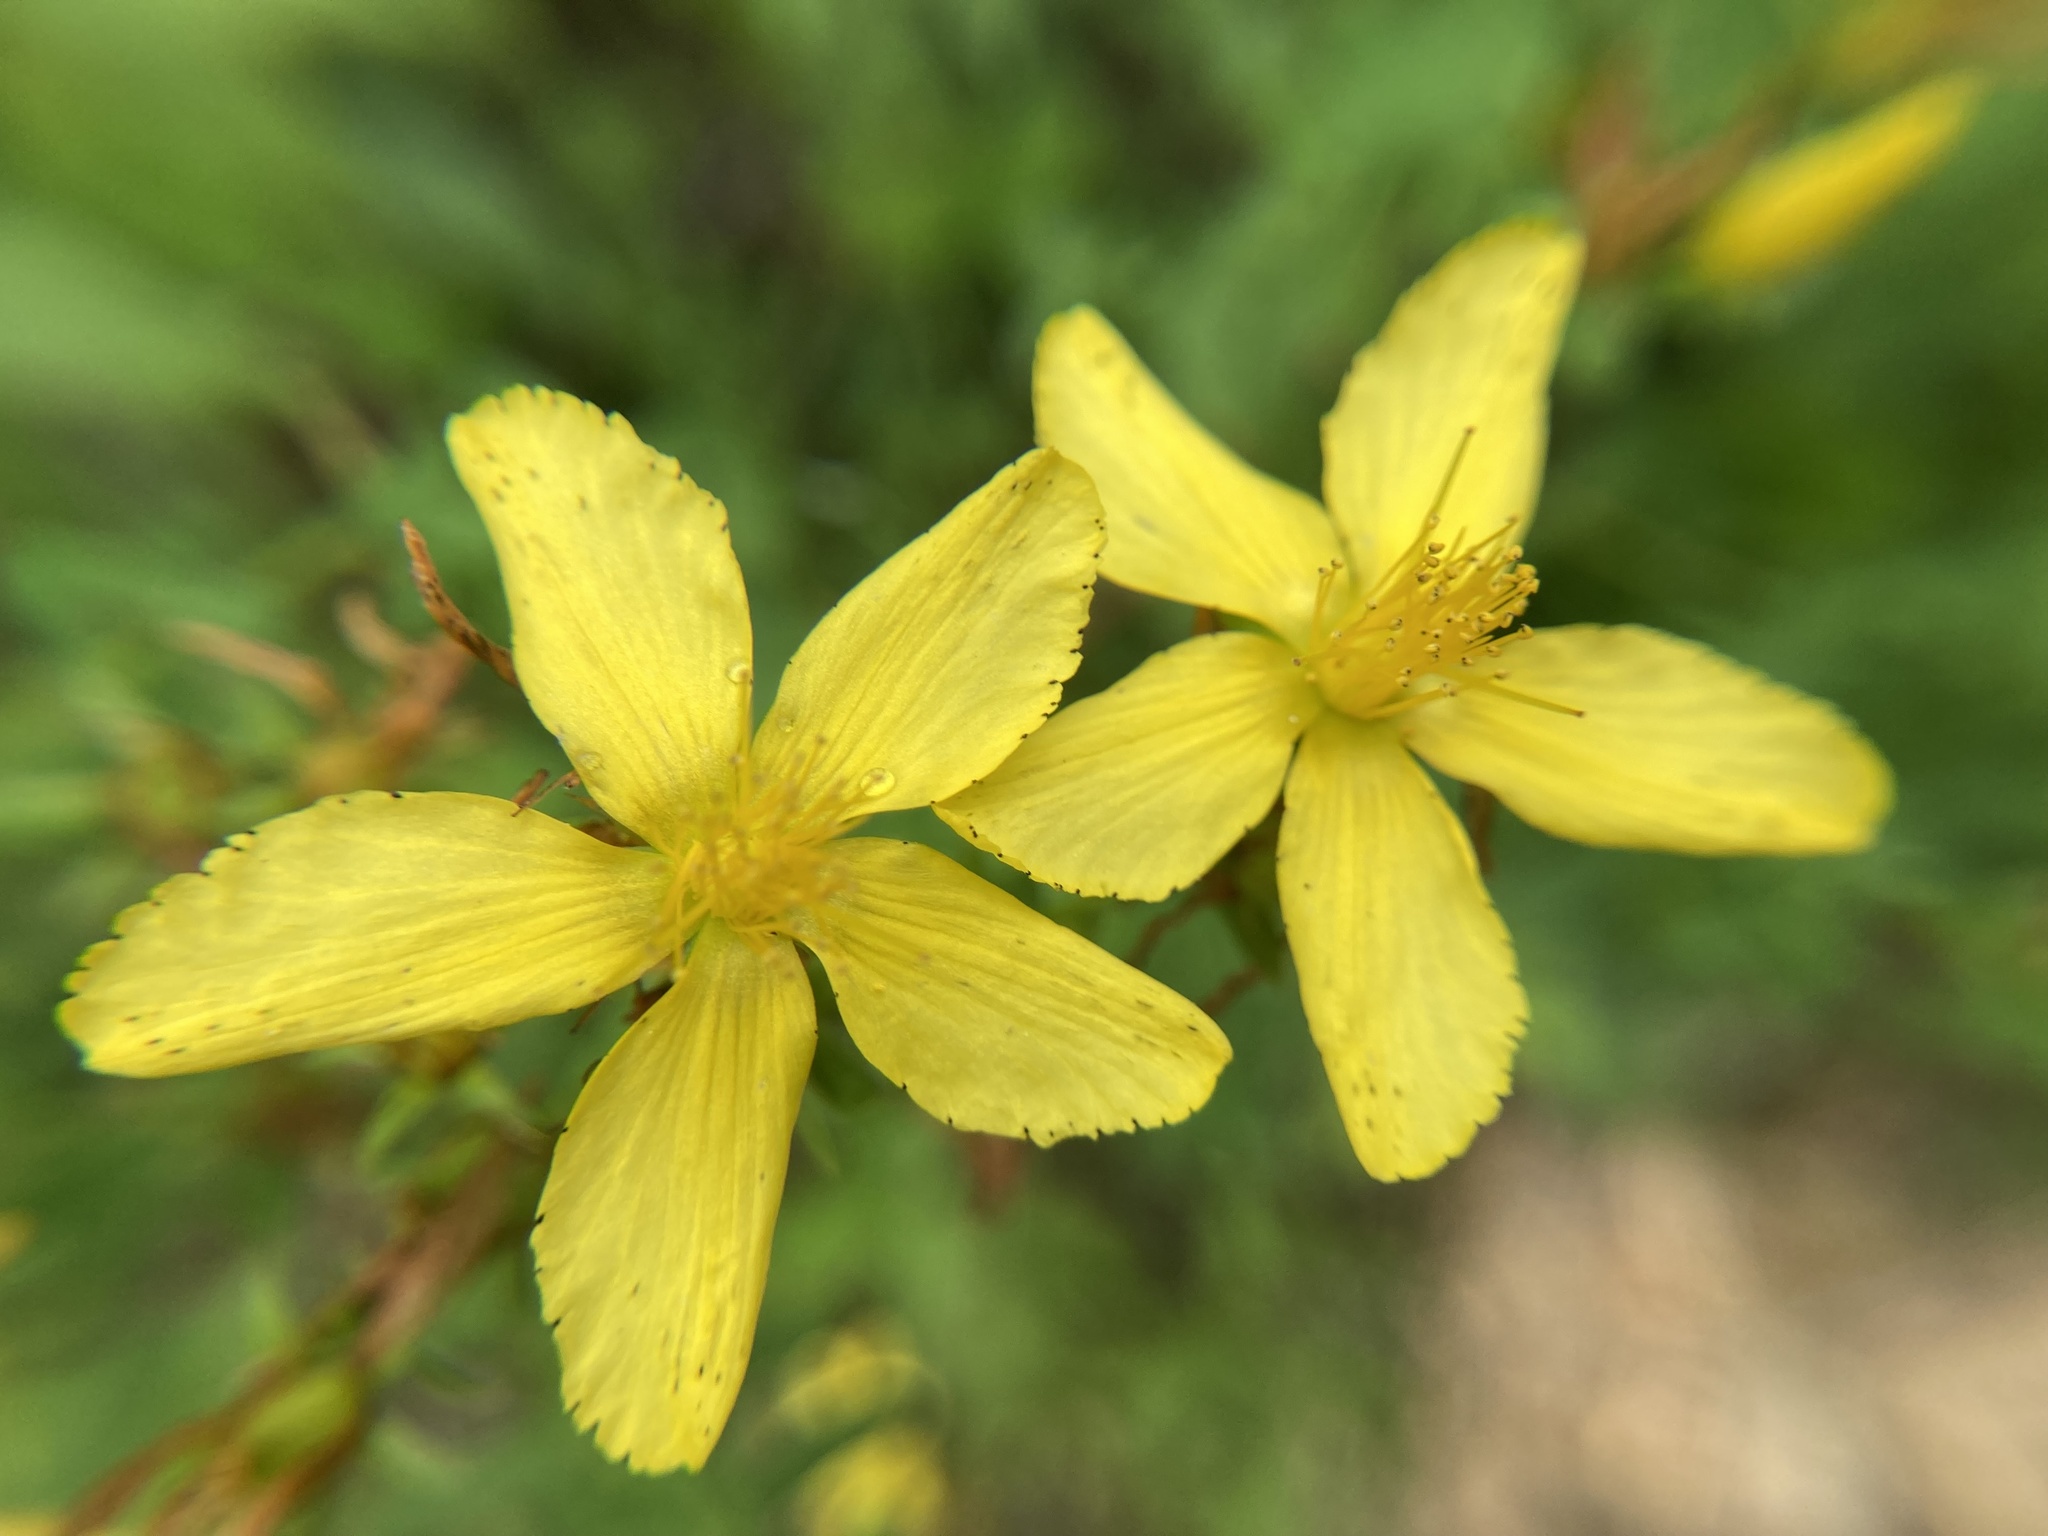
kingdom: Plantae
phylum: Tracheophyta
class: Magnoliopsida
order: Malpighiales
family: Hypericaceae
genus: Hypericum
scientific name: Hypericum perforatum
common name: Common st. johnswort
